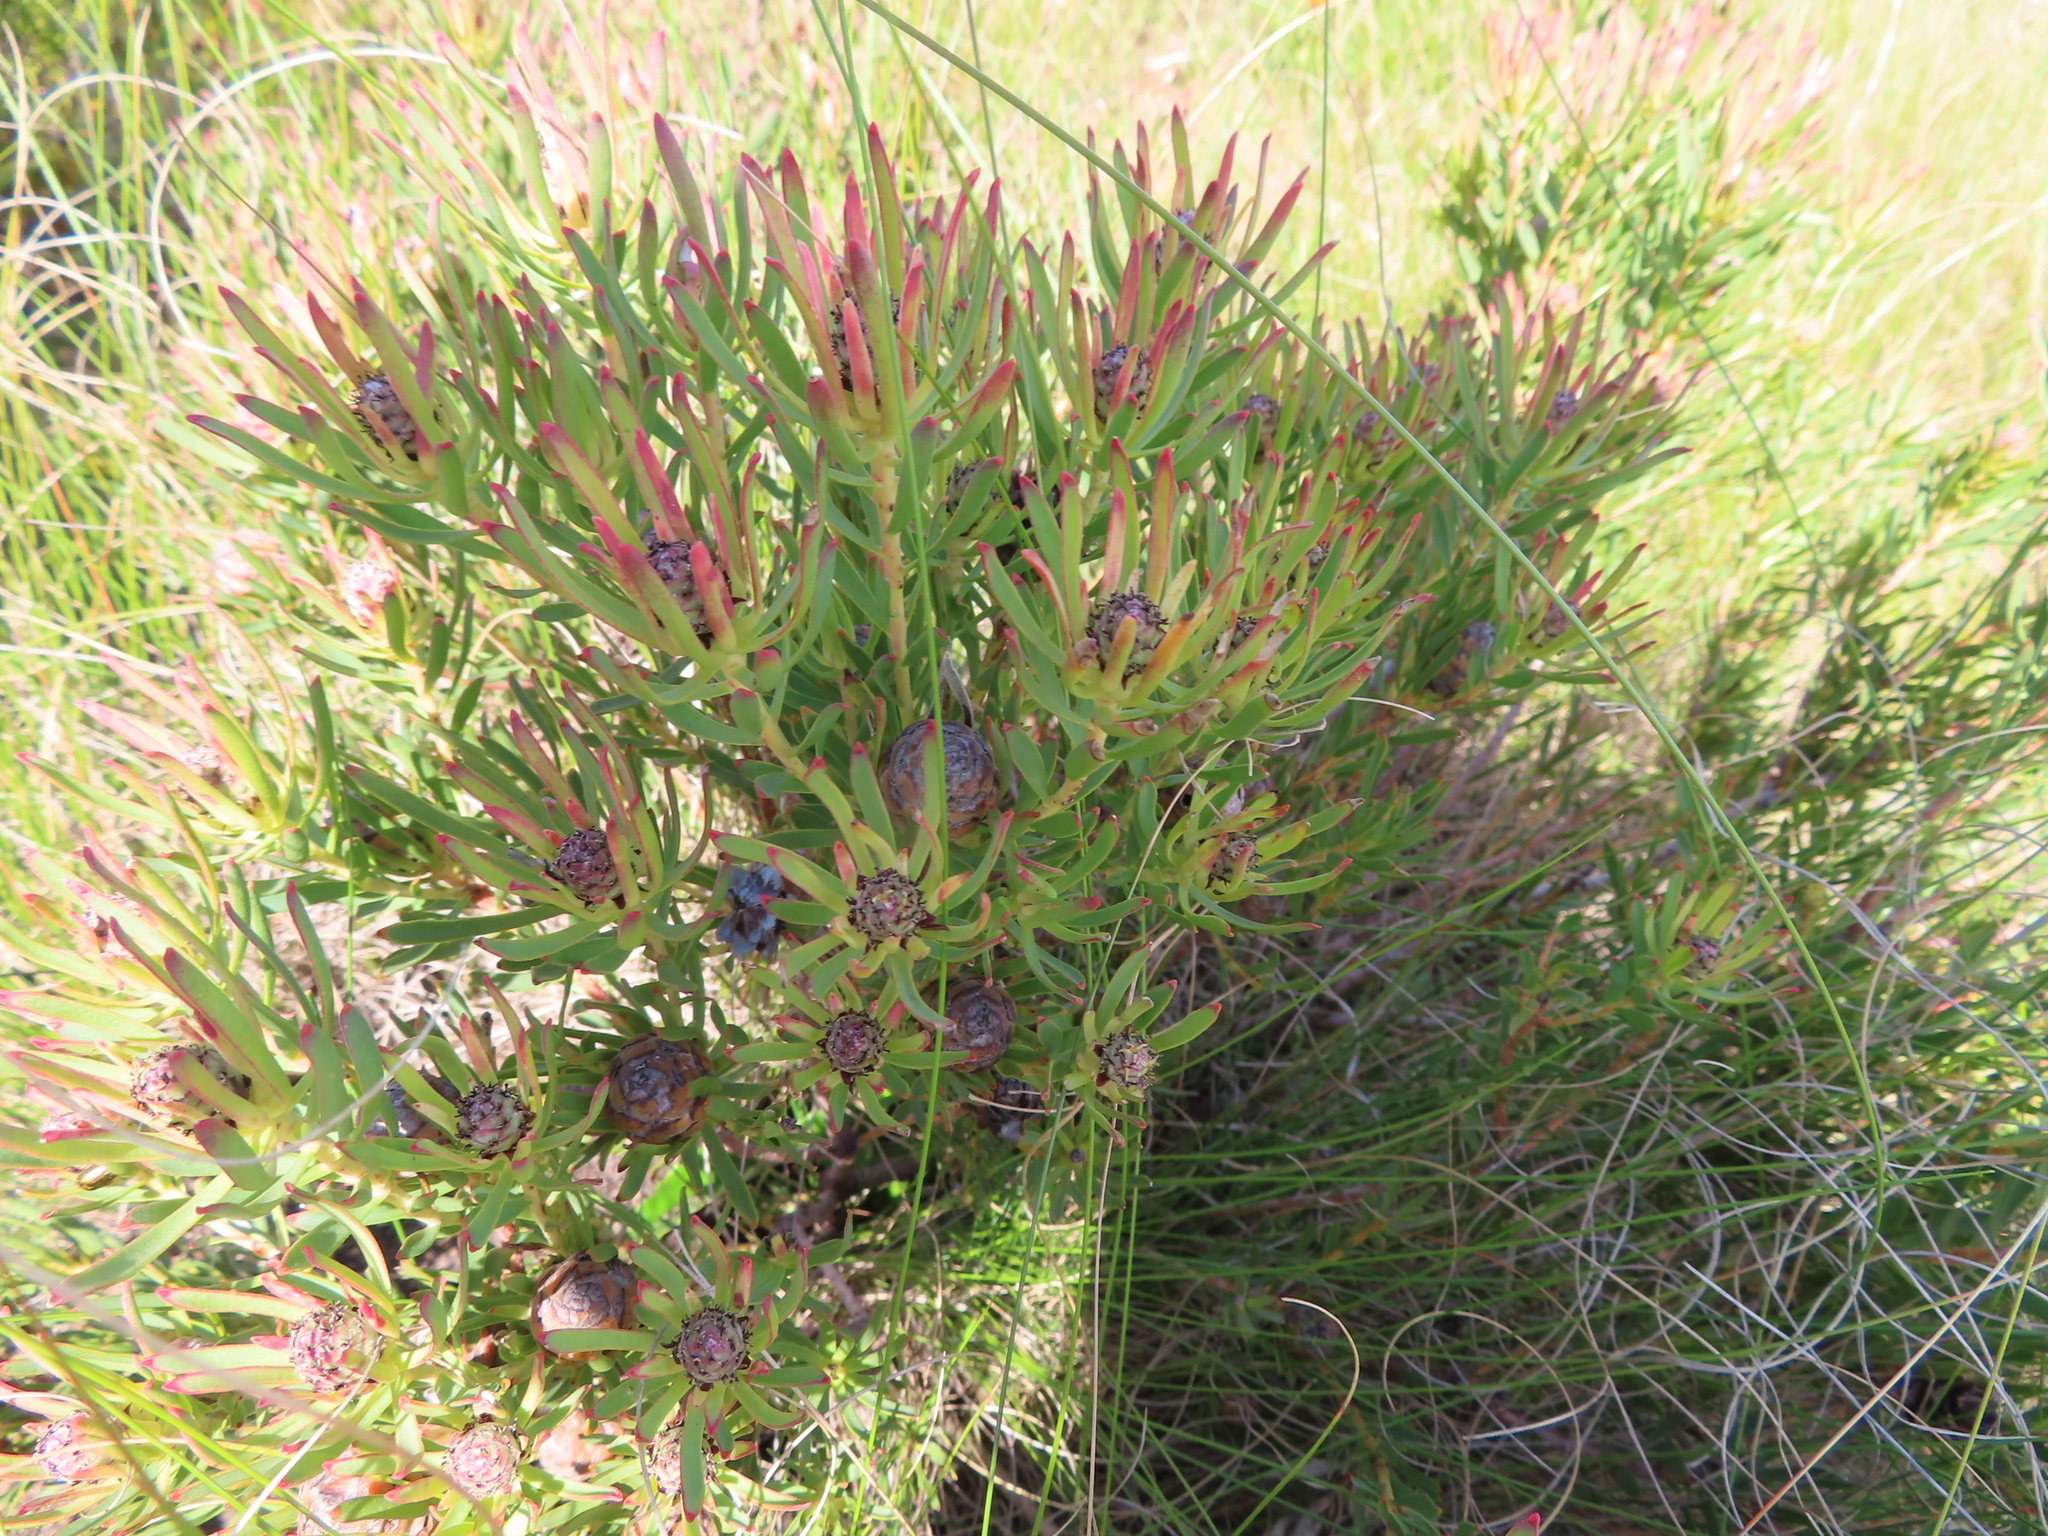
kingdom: Plantae
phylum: Tracheophyta
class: Magnoliopsida
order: Proteales
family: Proteaceae
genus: Leucadendron
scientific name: Leucadendron lanigerum
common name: Shale conebush
